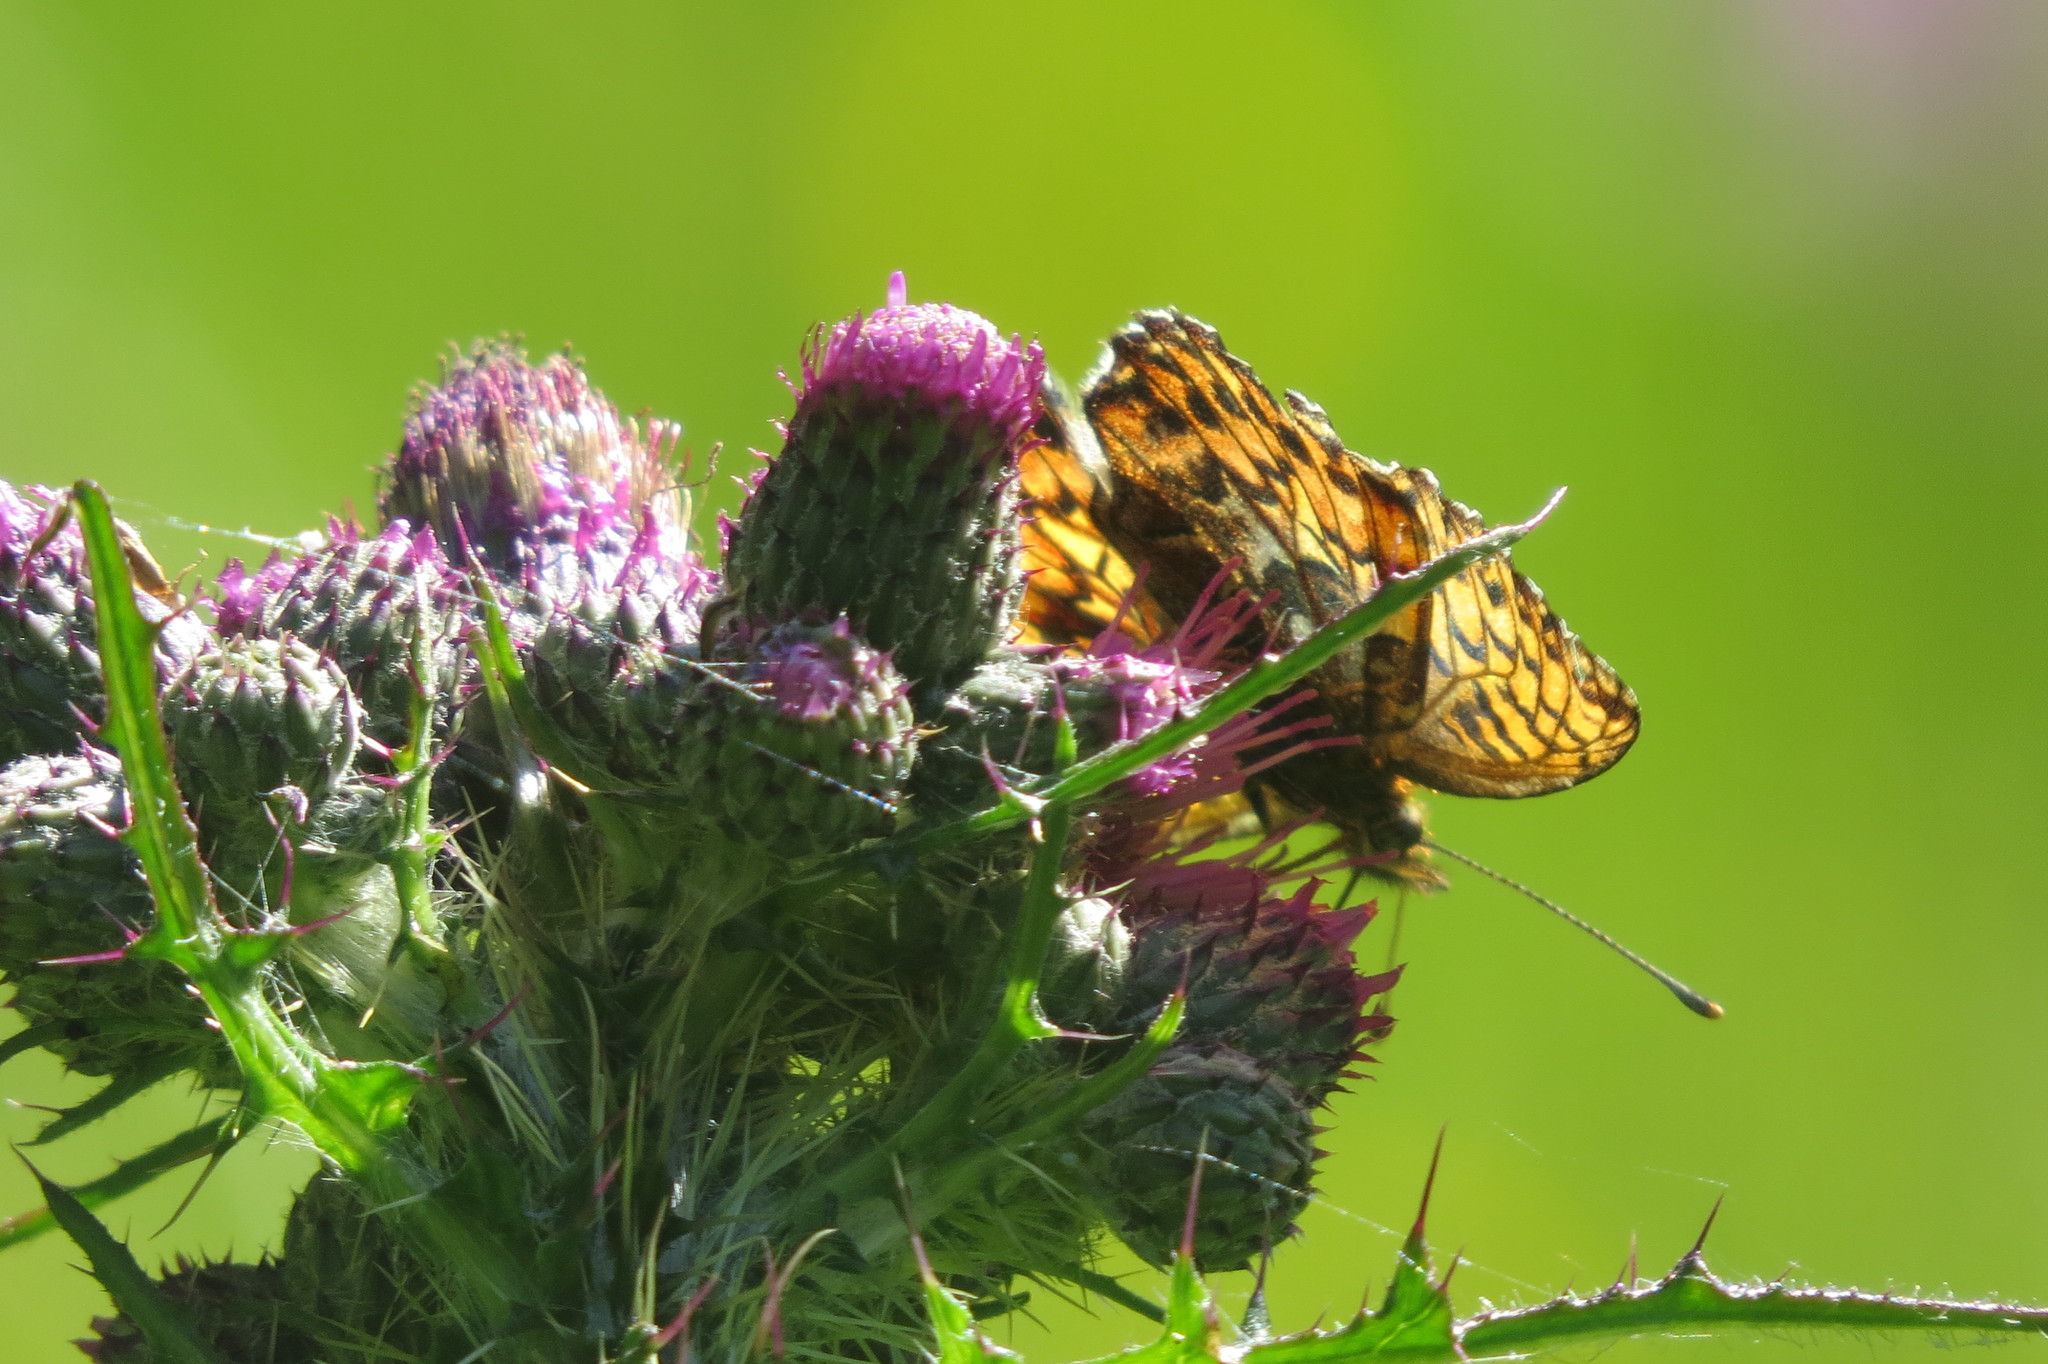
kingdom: Animalia
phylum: Arthropoda
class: Insecta
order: Lepidoptera
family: Nymphalidae
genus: Boloria
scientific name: Boloria titania
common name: Titania's fritillary
